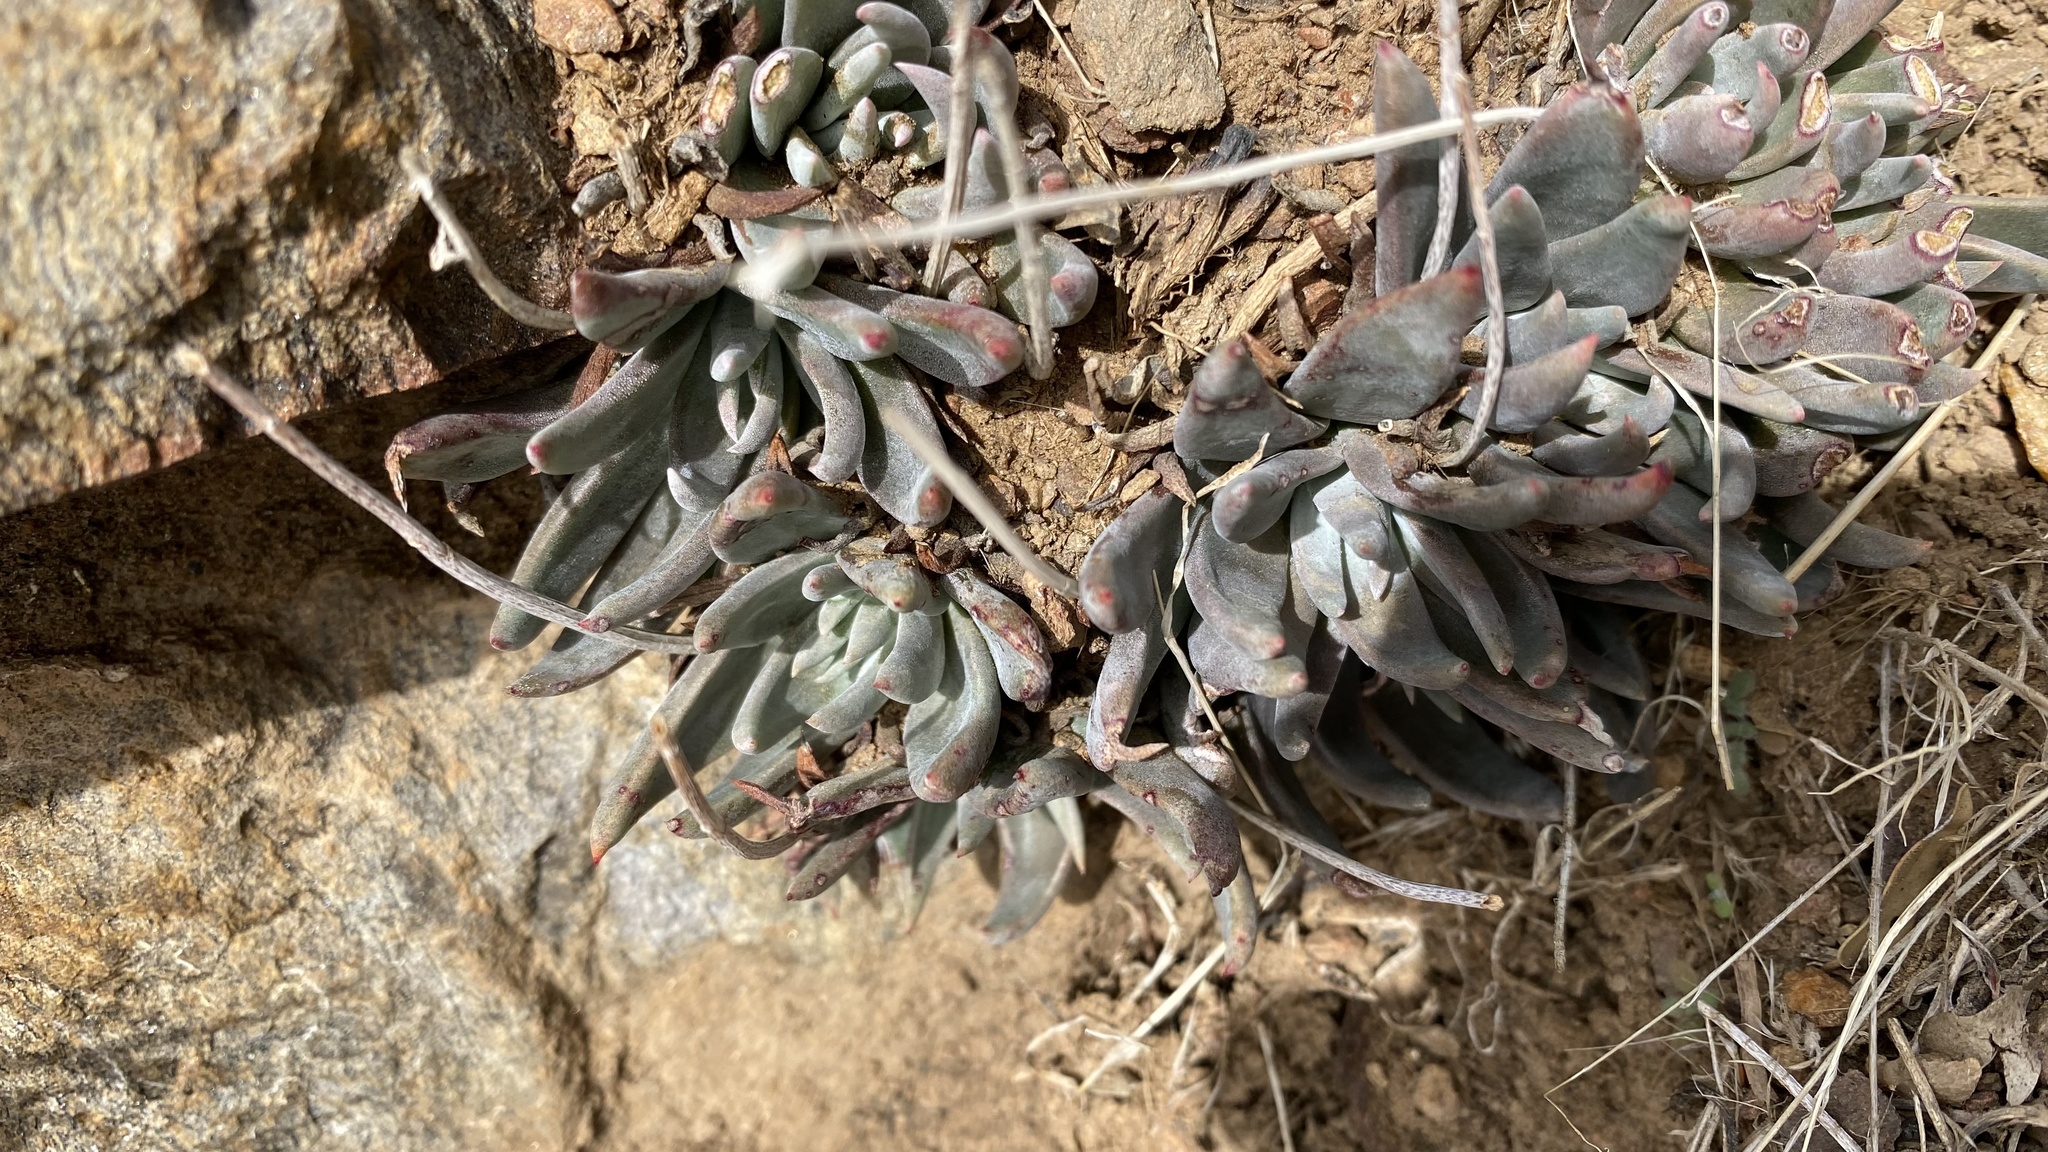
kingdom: Plantae
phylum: Tracheophyta
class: Magnoliopsida
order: Saxifragales
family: Crassulaceae
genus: Dudleya
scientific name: Dudleya calcicola
